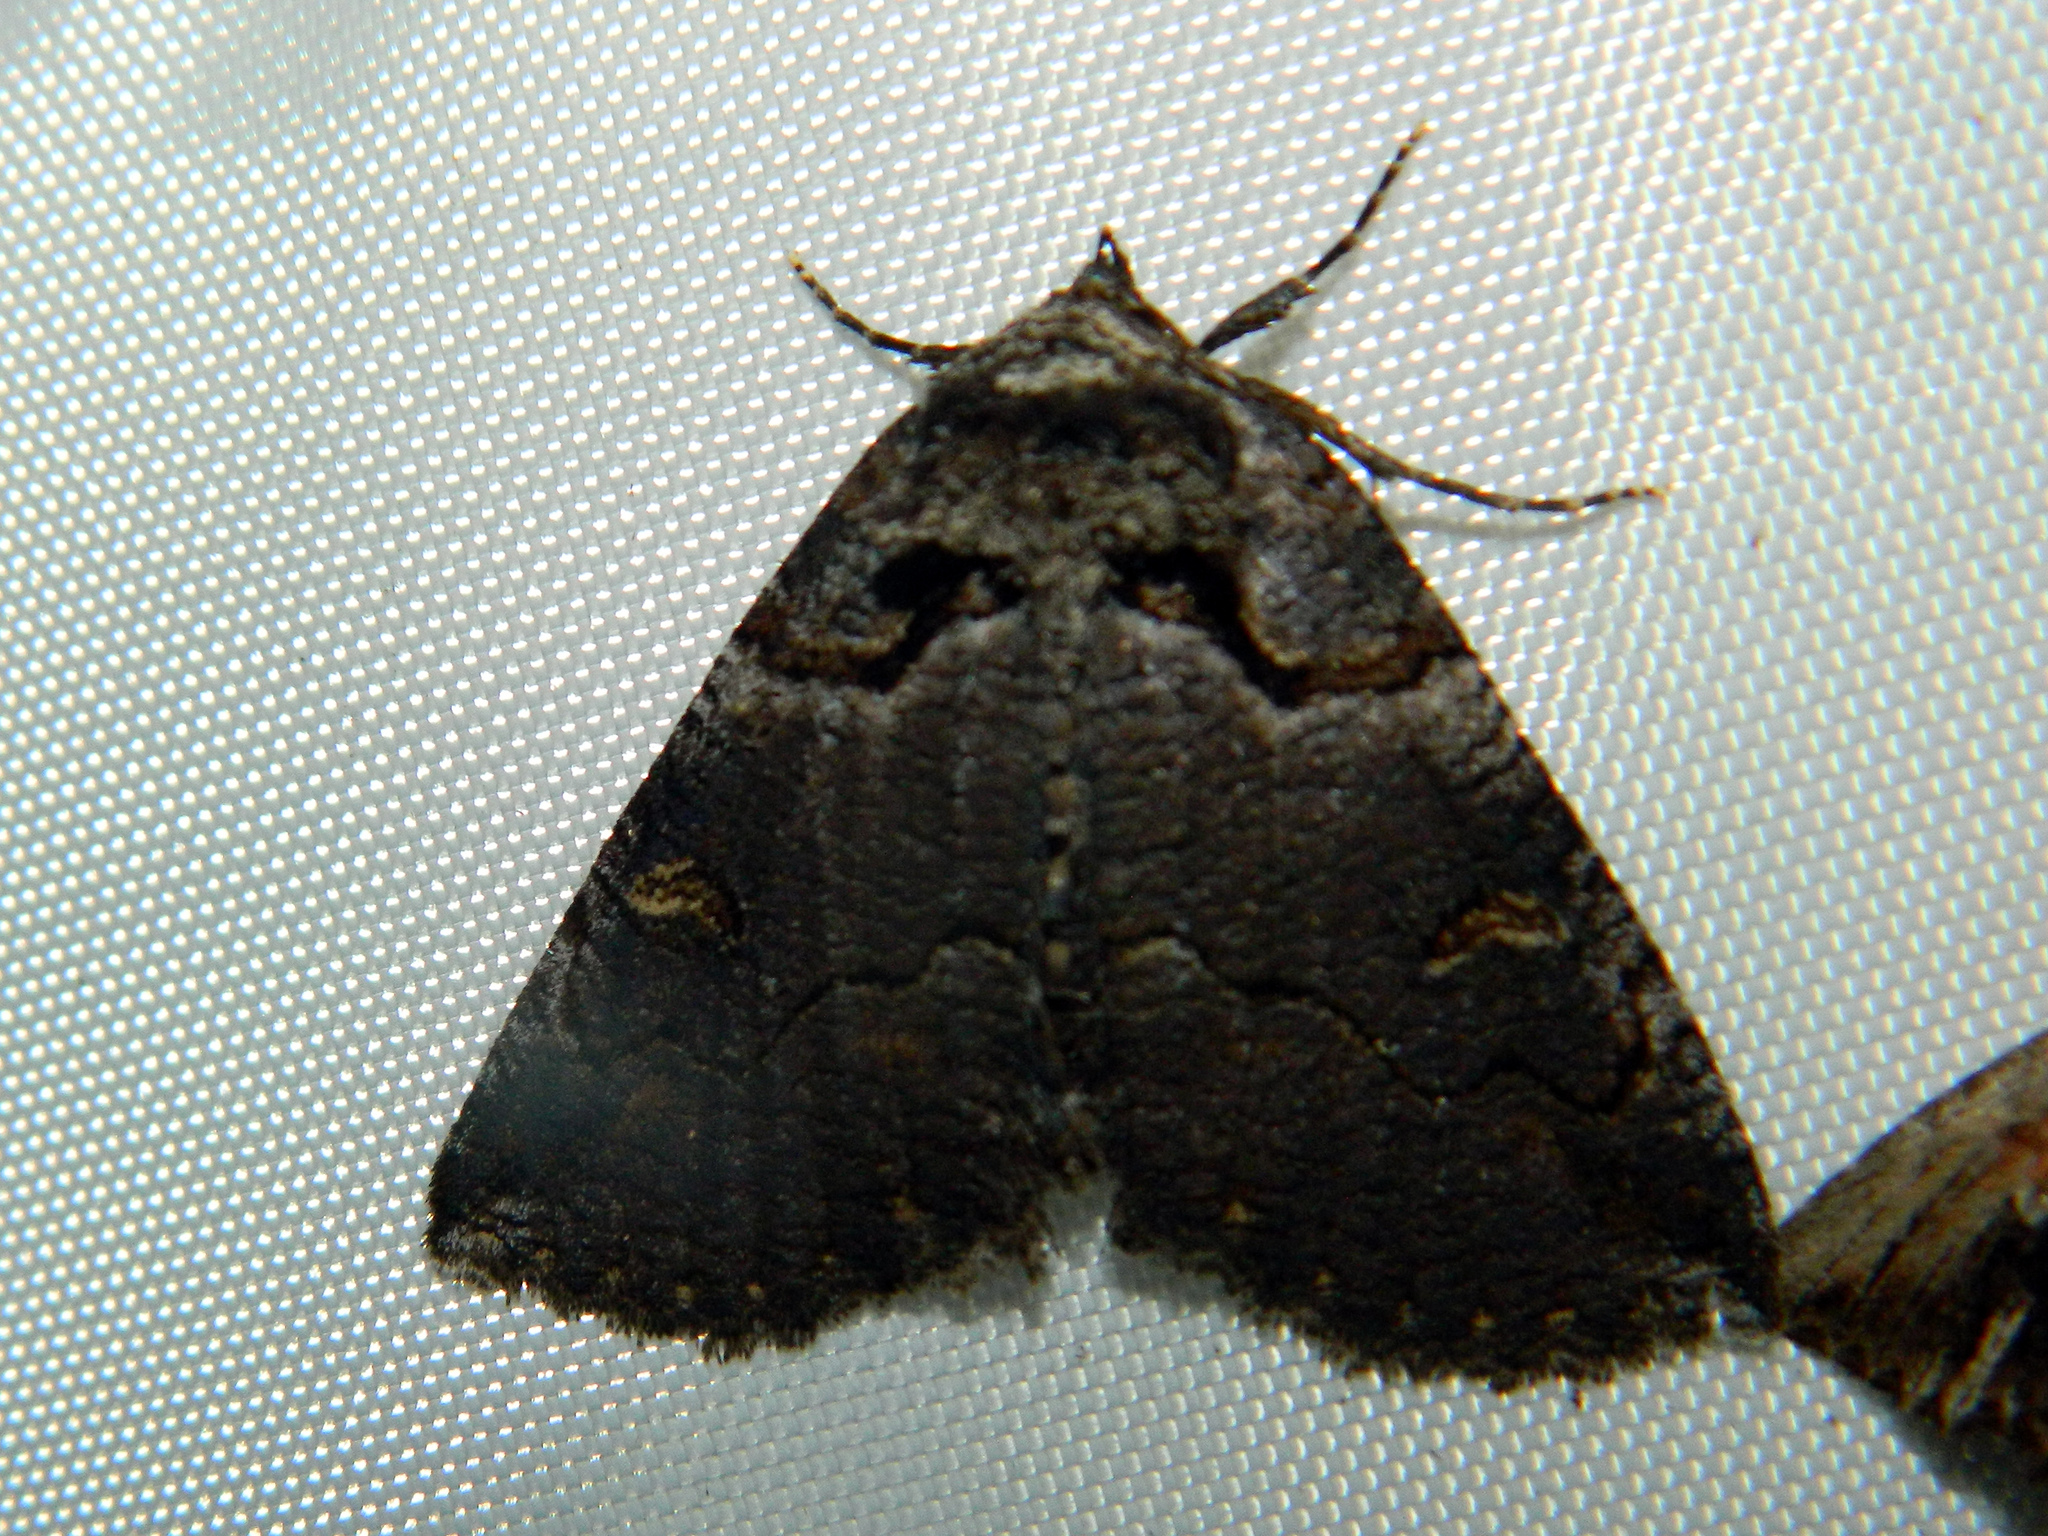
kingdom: Animalia
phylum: Arthropoda
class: Insecta
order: Lepidoptera
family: Erebidae
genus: Zale
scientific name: Zale intenta
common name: Intent zale moth
